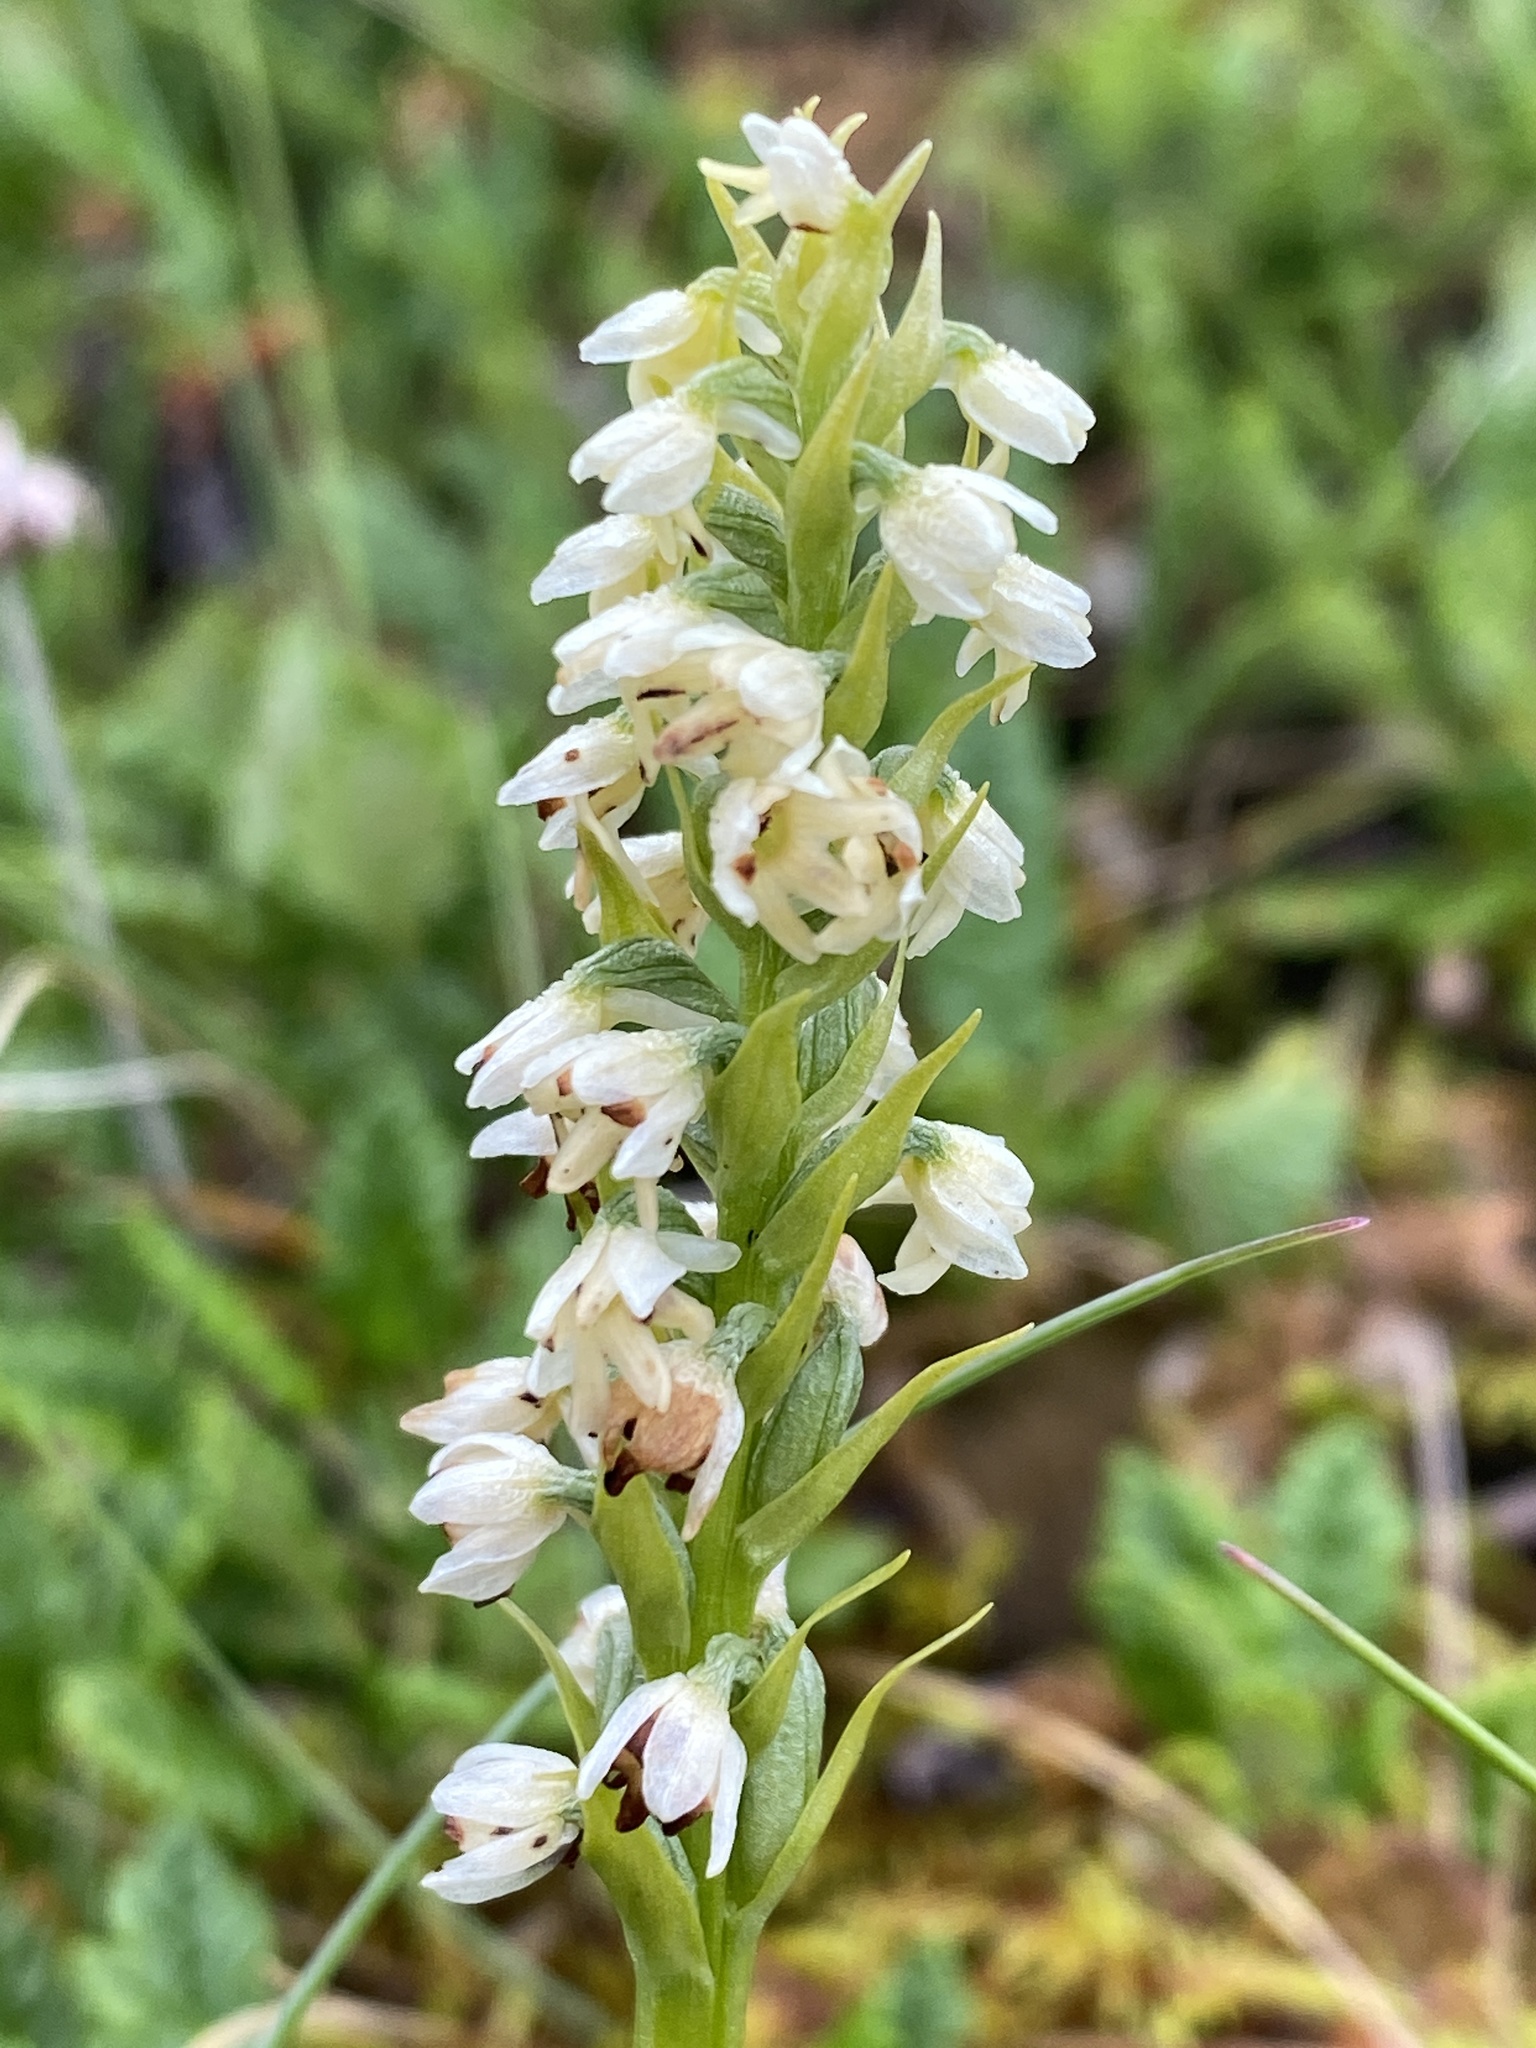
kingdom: Plantae
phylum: Tracheophyta
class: Liliopsida
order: Asparagales
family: Orchidaceae
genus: Pseudorchis
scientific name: Pseudorchis albida
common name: Small-white orchid
